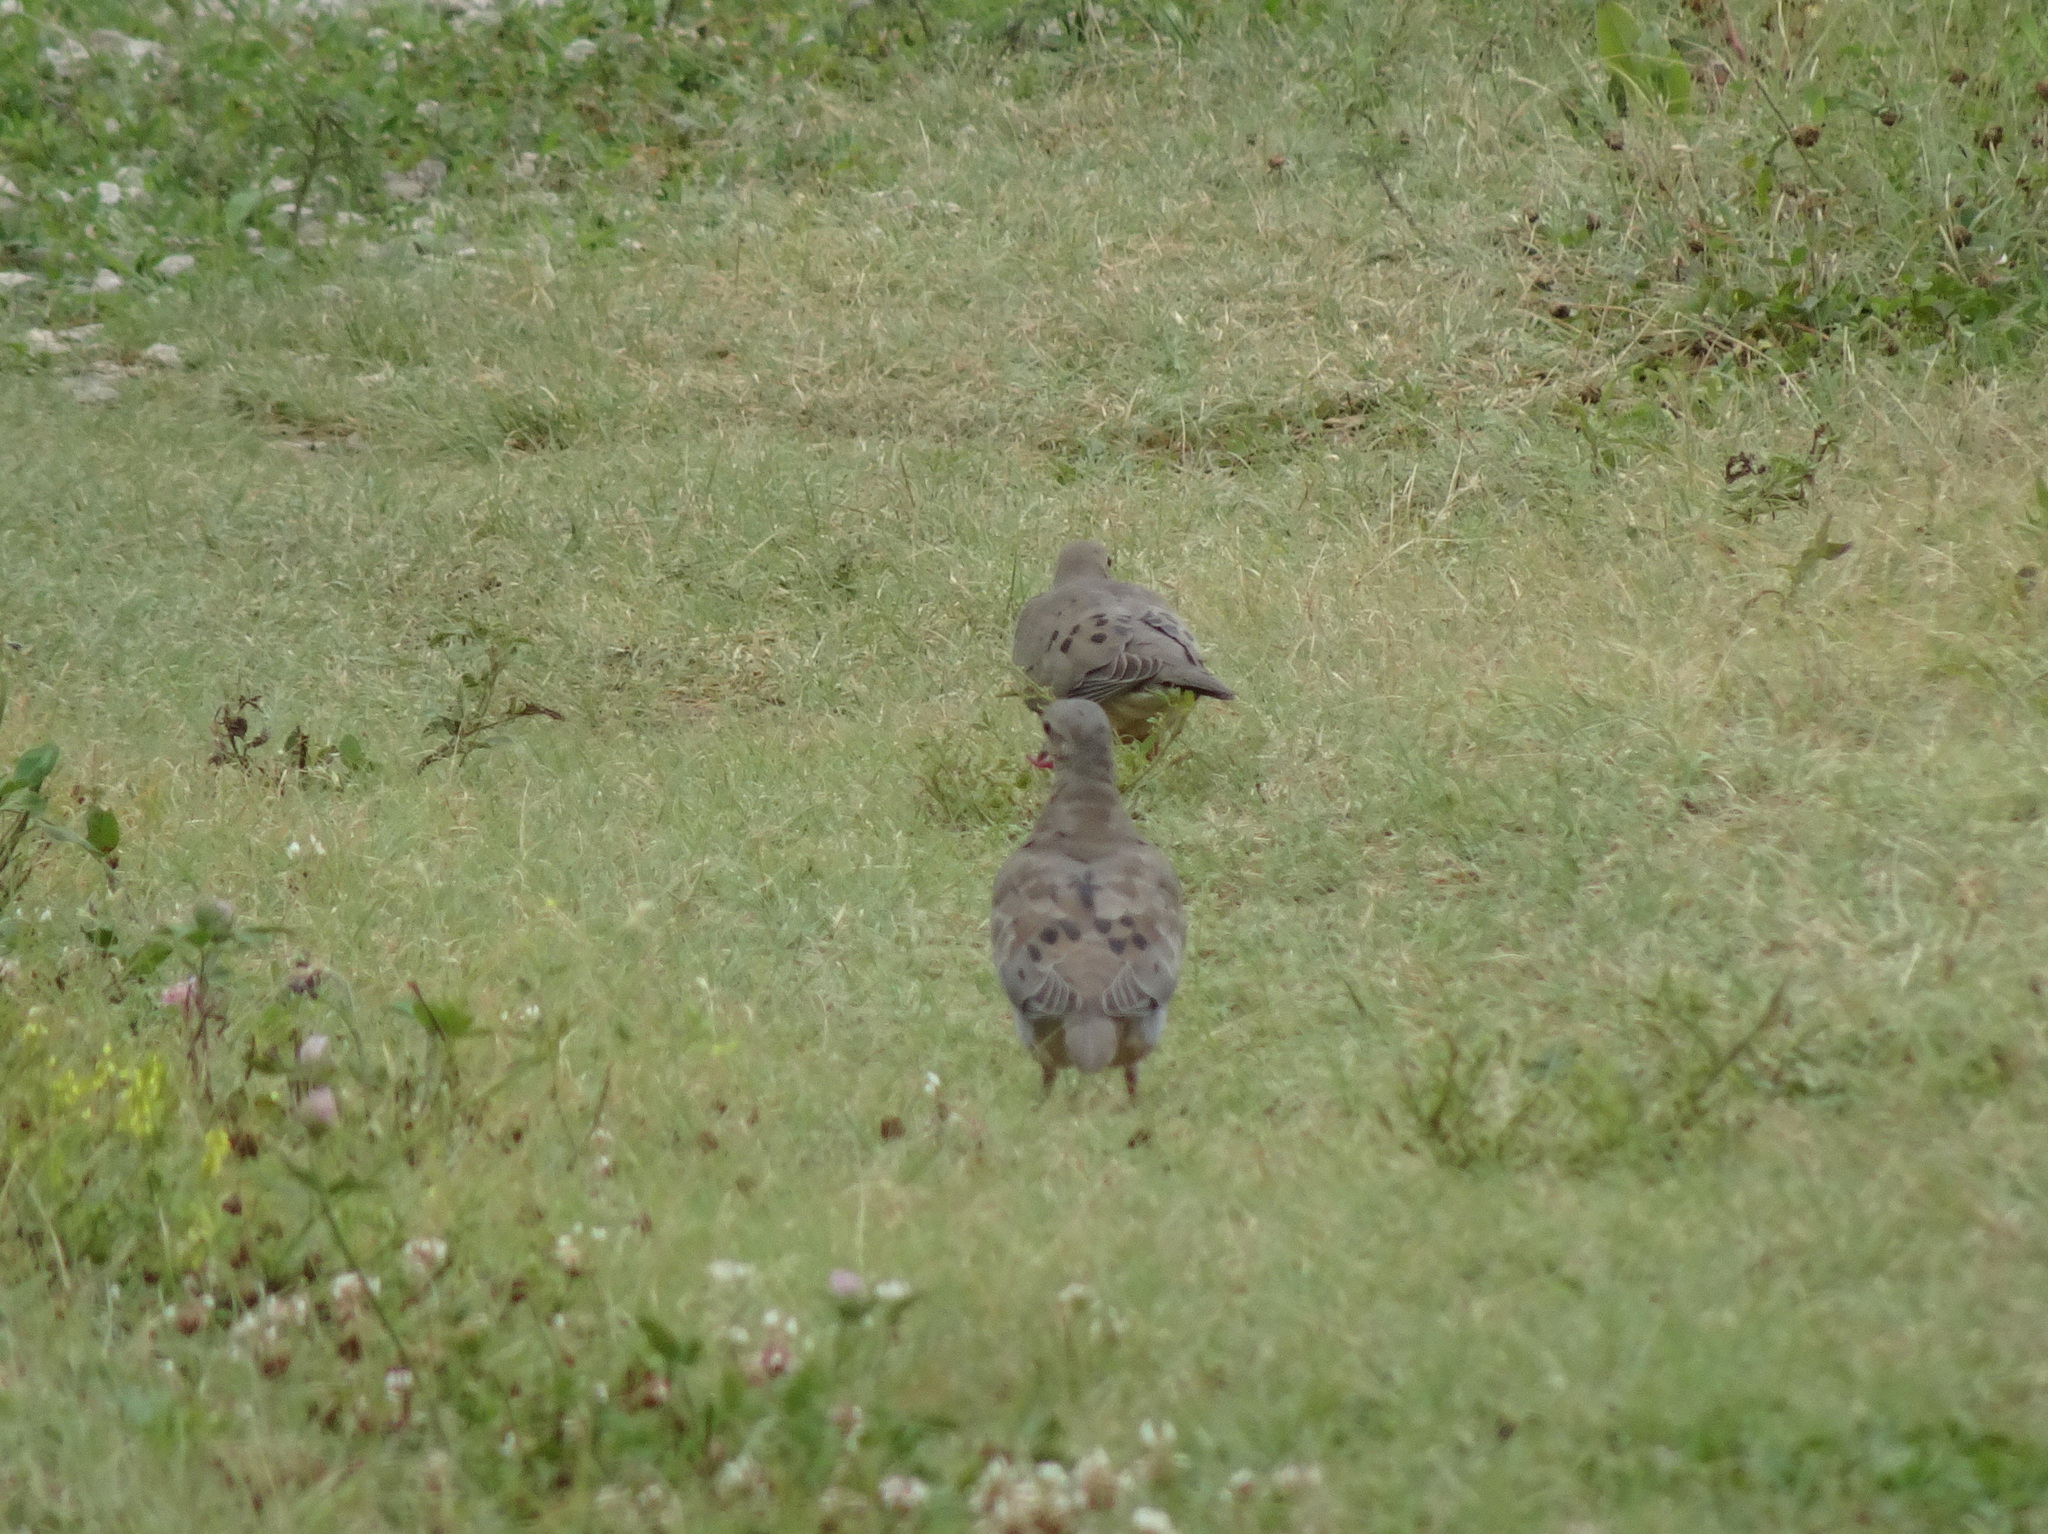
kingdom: Animalia
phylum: Chordata
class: Aves
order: Columbiformes
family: Columbidae
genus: Zenaida
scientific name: Zenaida macroura
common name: Mourning dove
